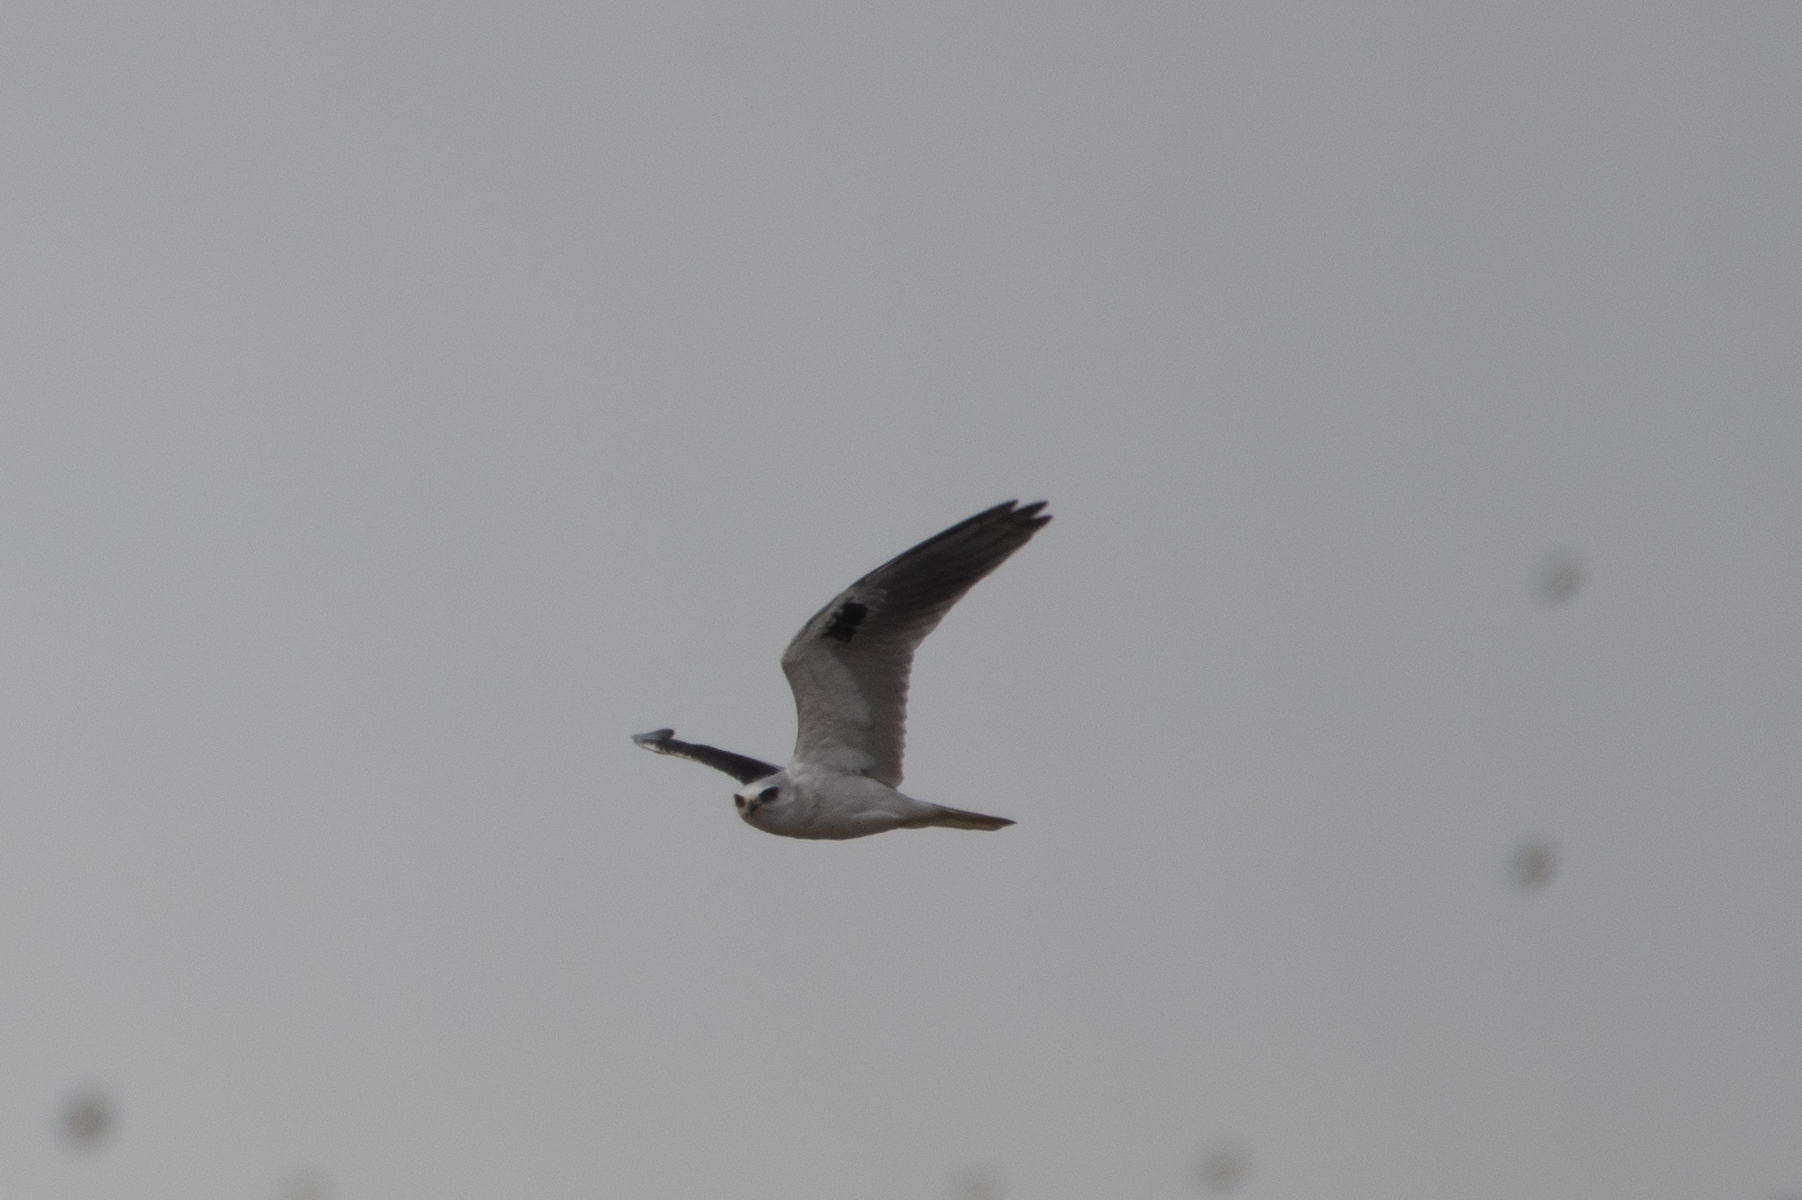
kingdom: Animalia
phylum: Chordata
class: Aves
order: Accipitriformes
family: Accipitridae
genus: Elanus
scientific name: Elanus leucurus
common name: White-tailed kite
